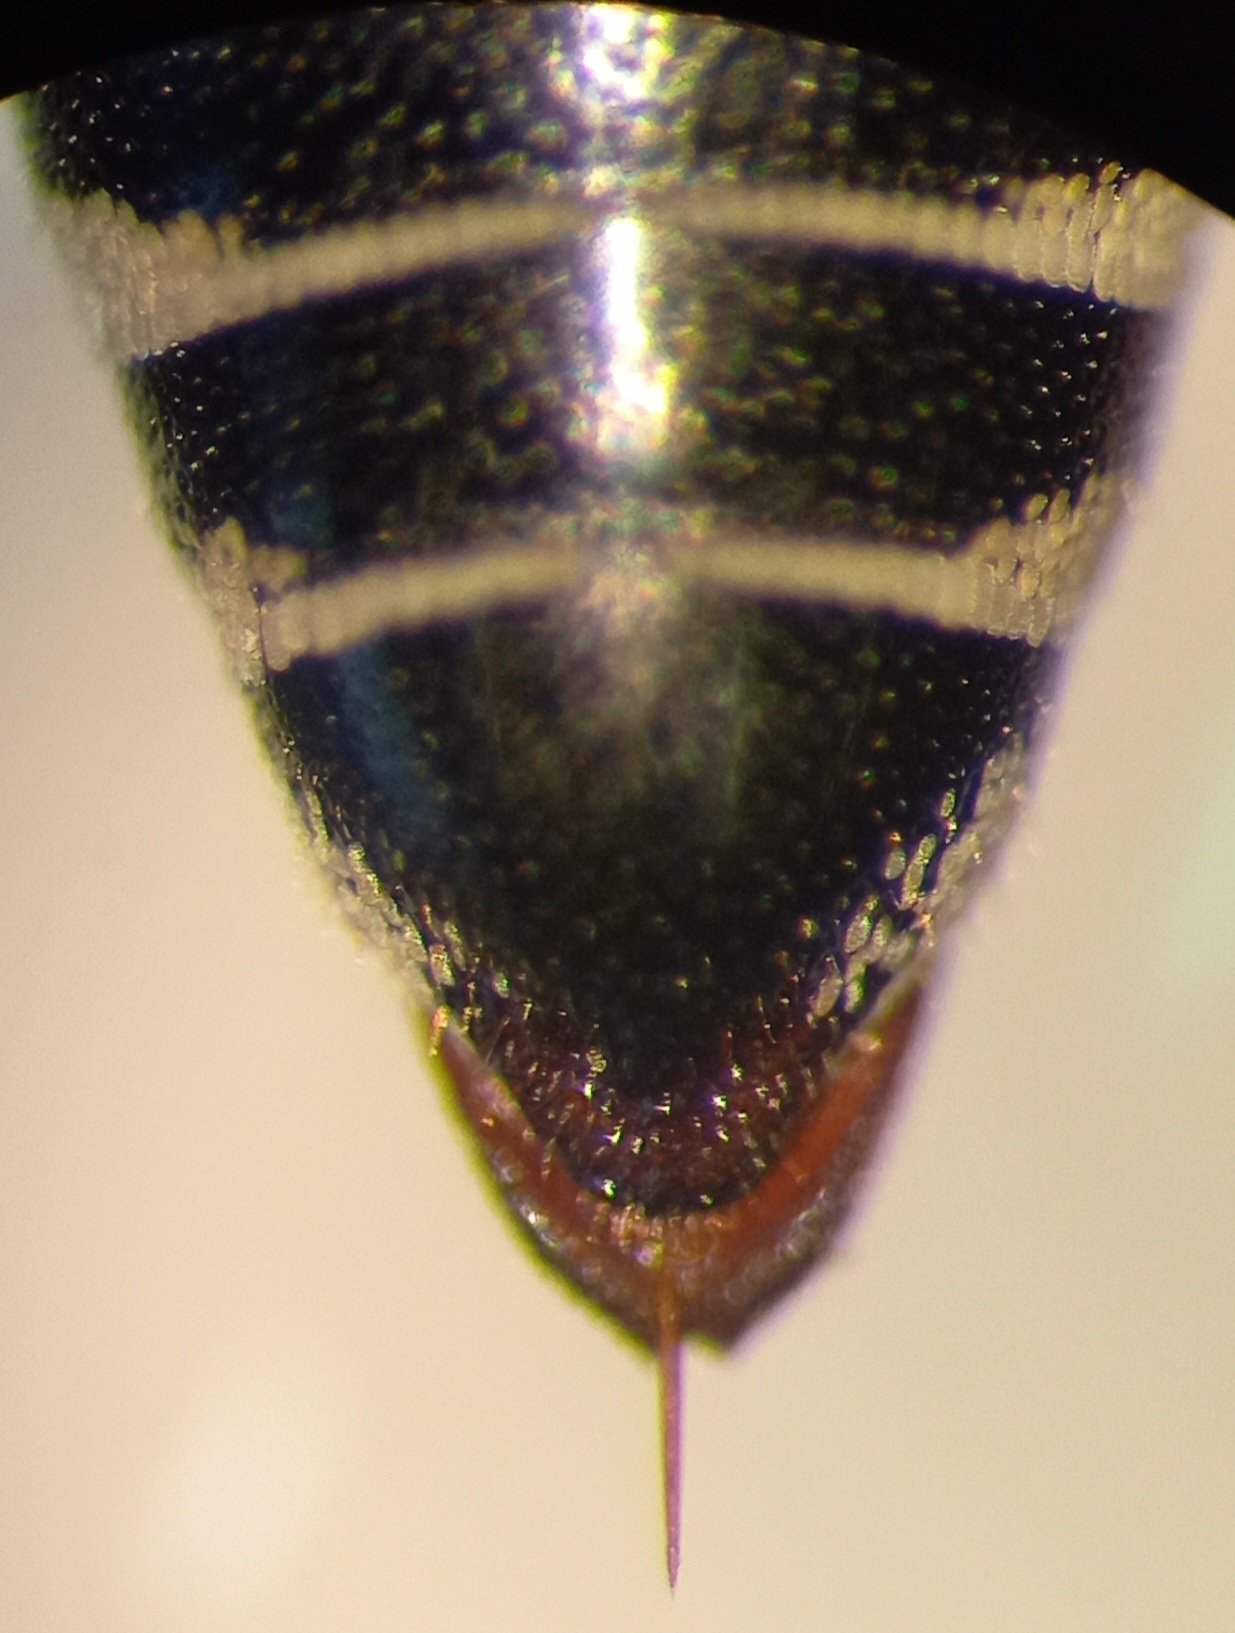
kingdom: Animalia
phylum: Arthropoda
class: Insecta
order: Hymenoptera
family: Megachilidae
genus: Coelioxys
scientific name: Coelioxys afra
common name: Short sharp-tail bee
